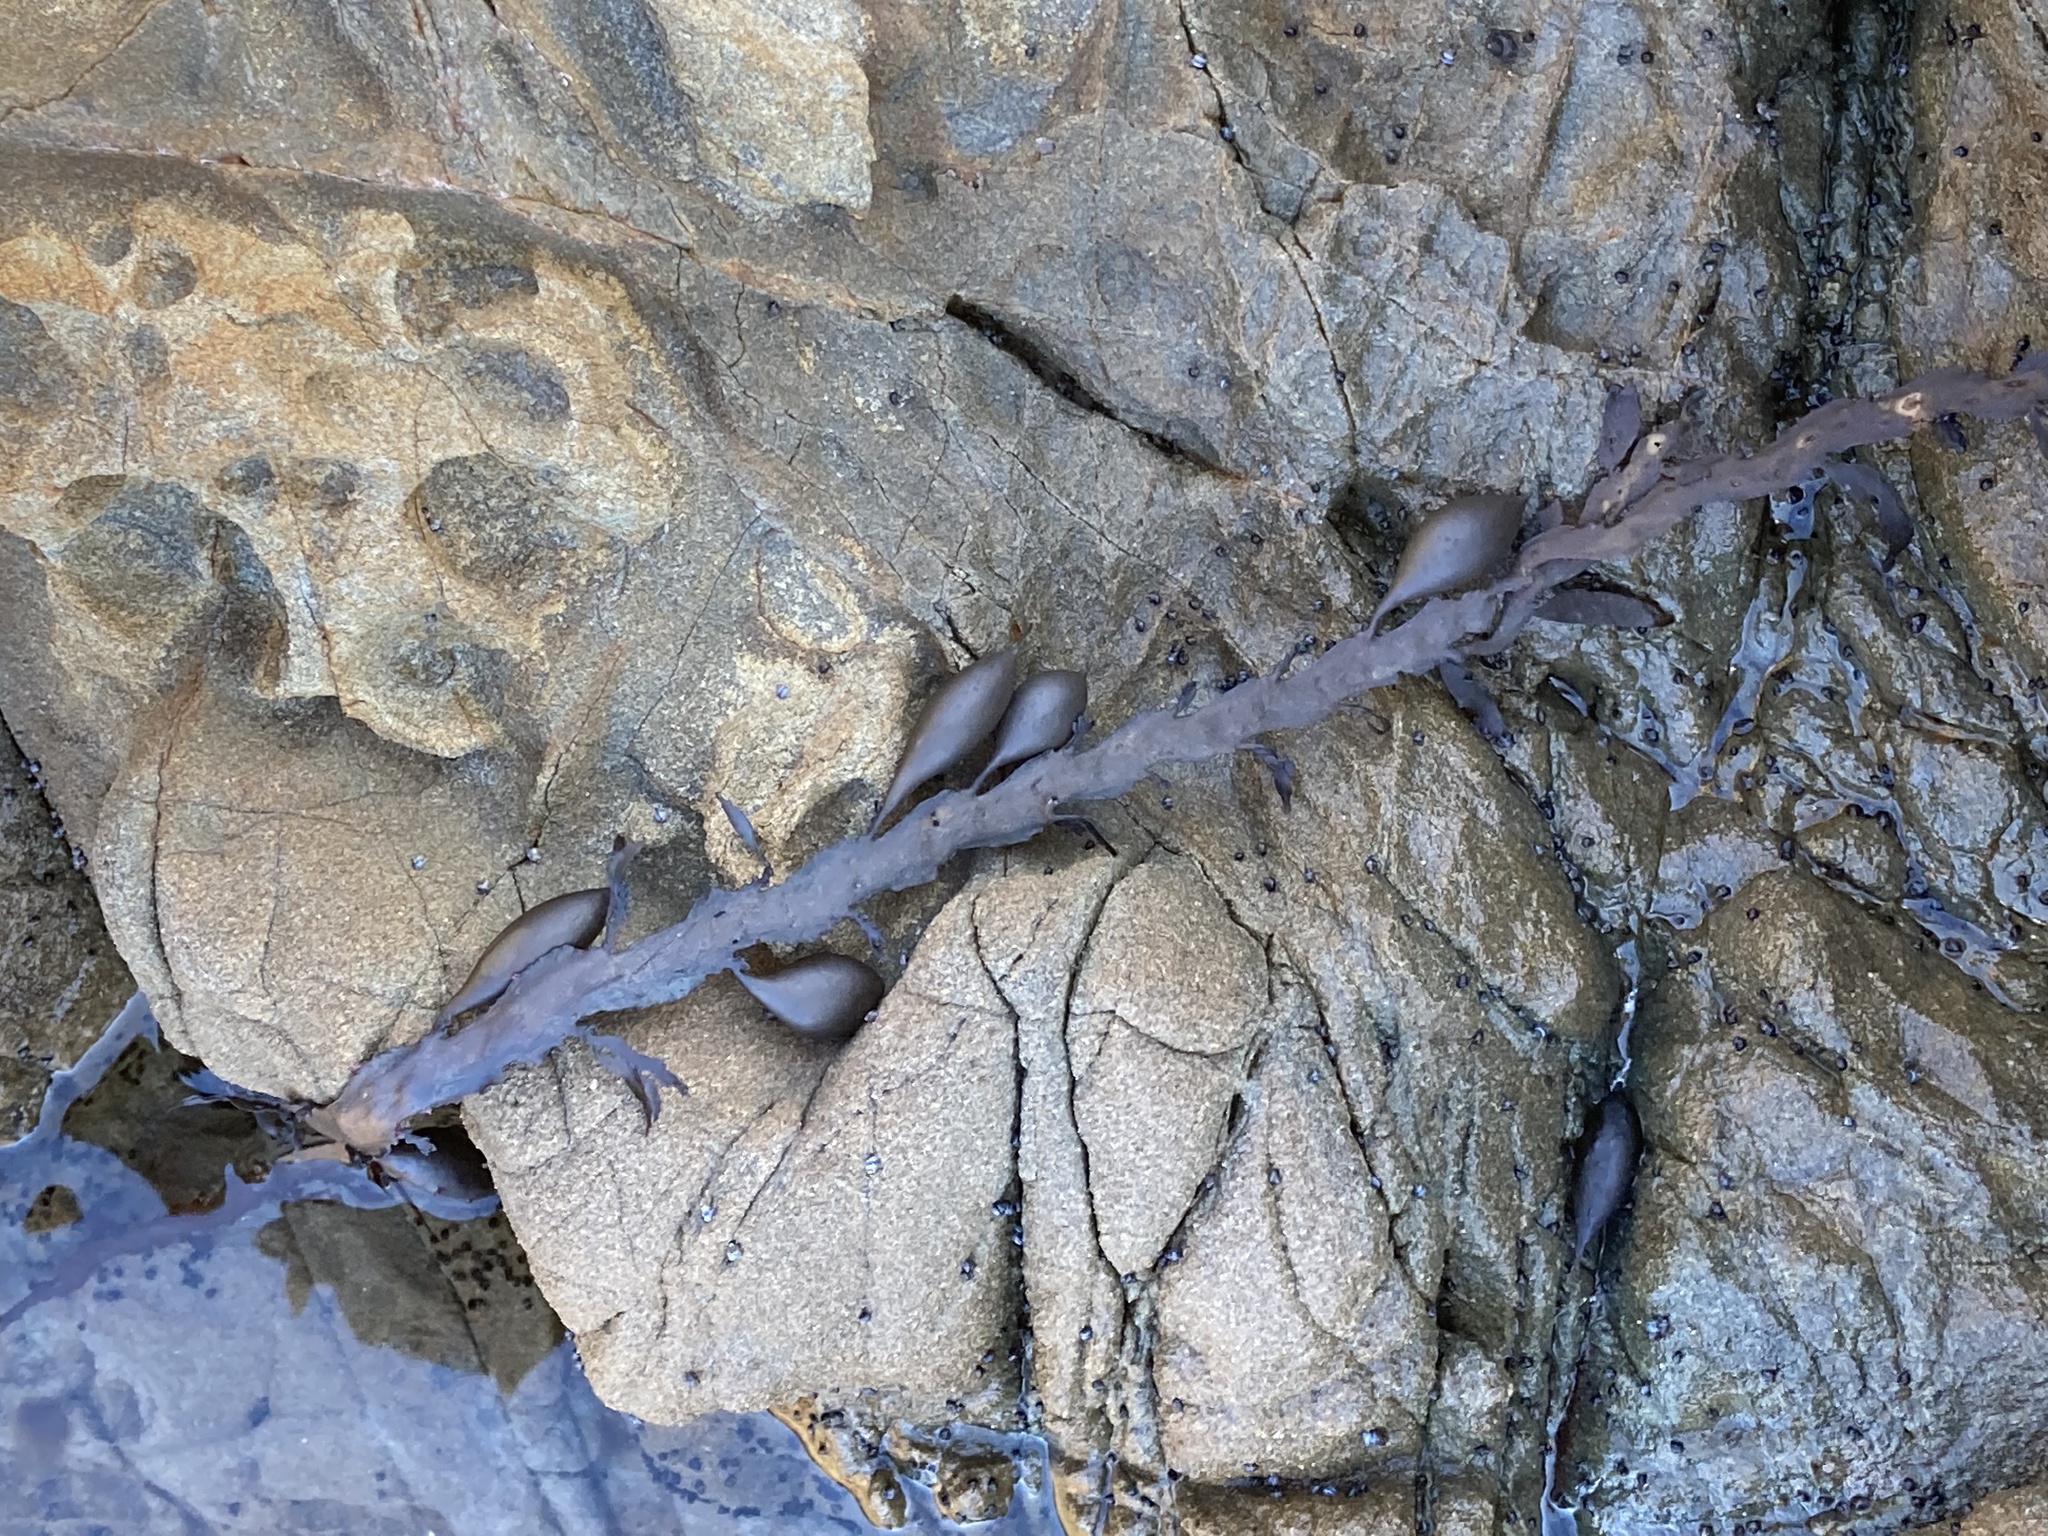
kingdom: Chromista
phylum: Ochrophyta
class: Phaeophyceae
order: Fucales
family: Sargassaceae
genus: Carpophyllum
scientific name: Carpophyllum maschalocarpum
